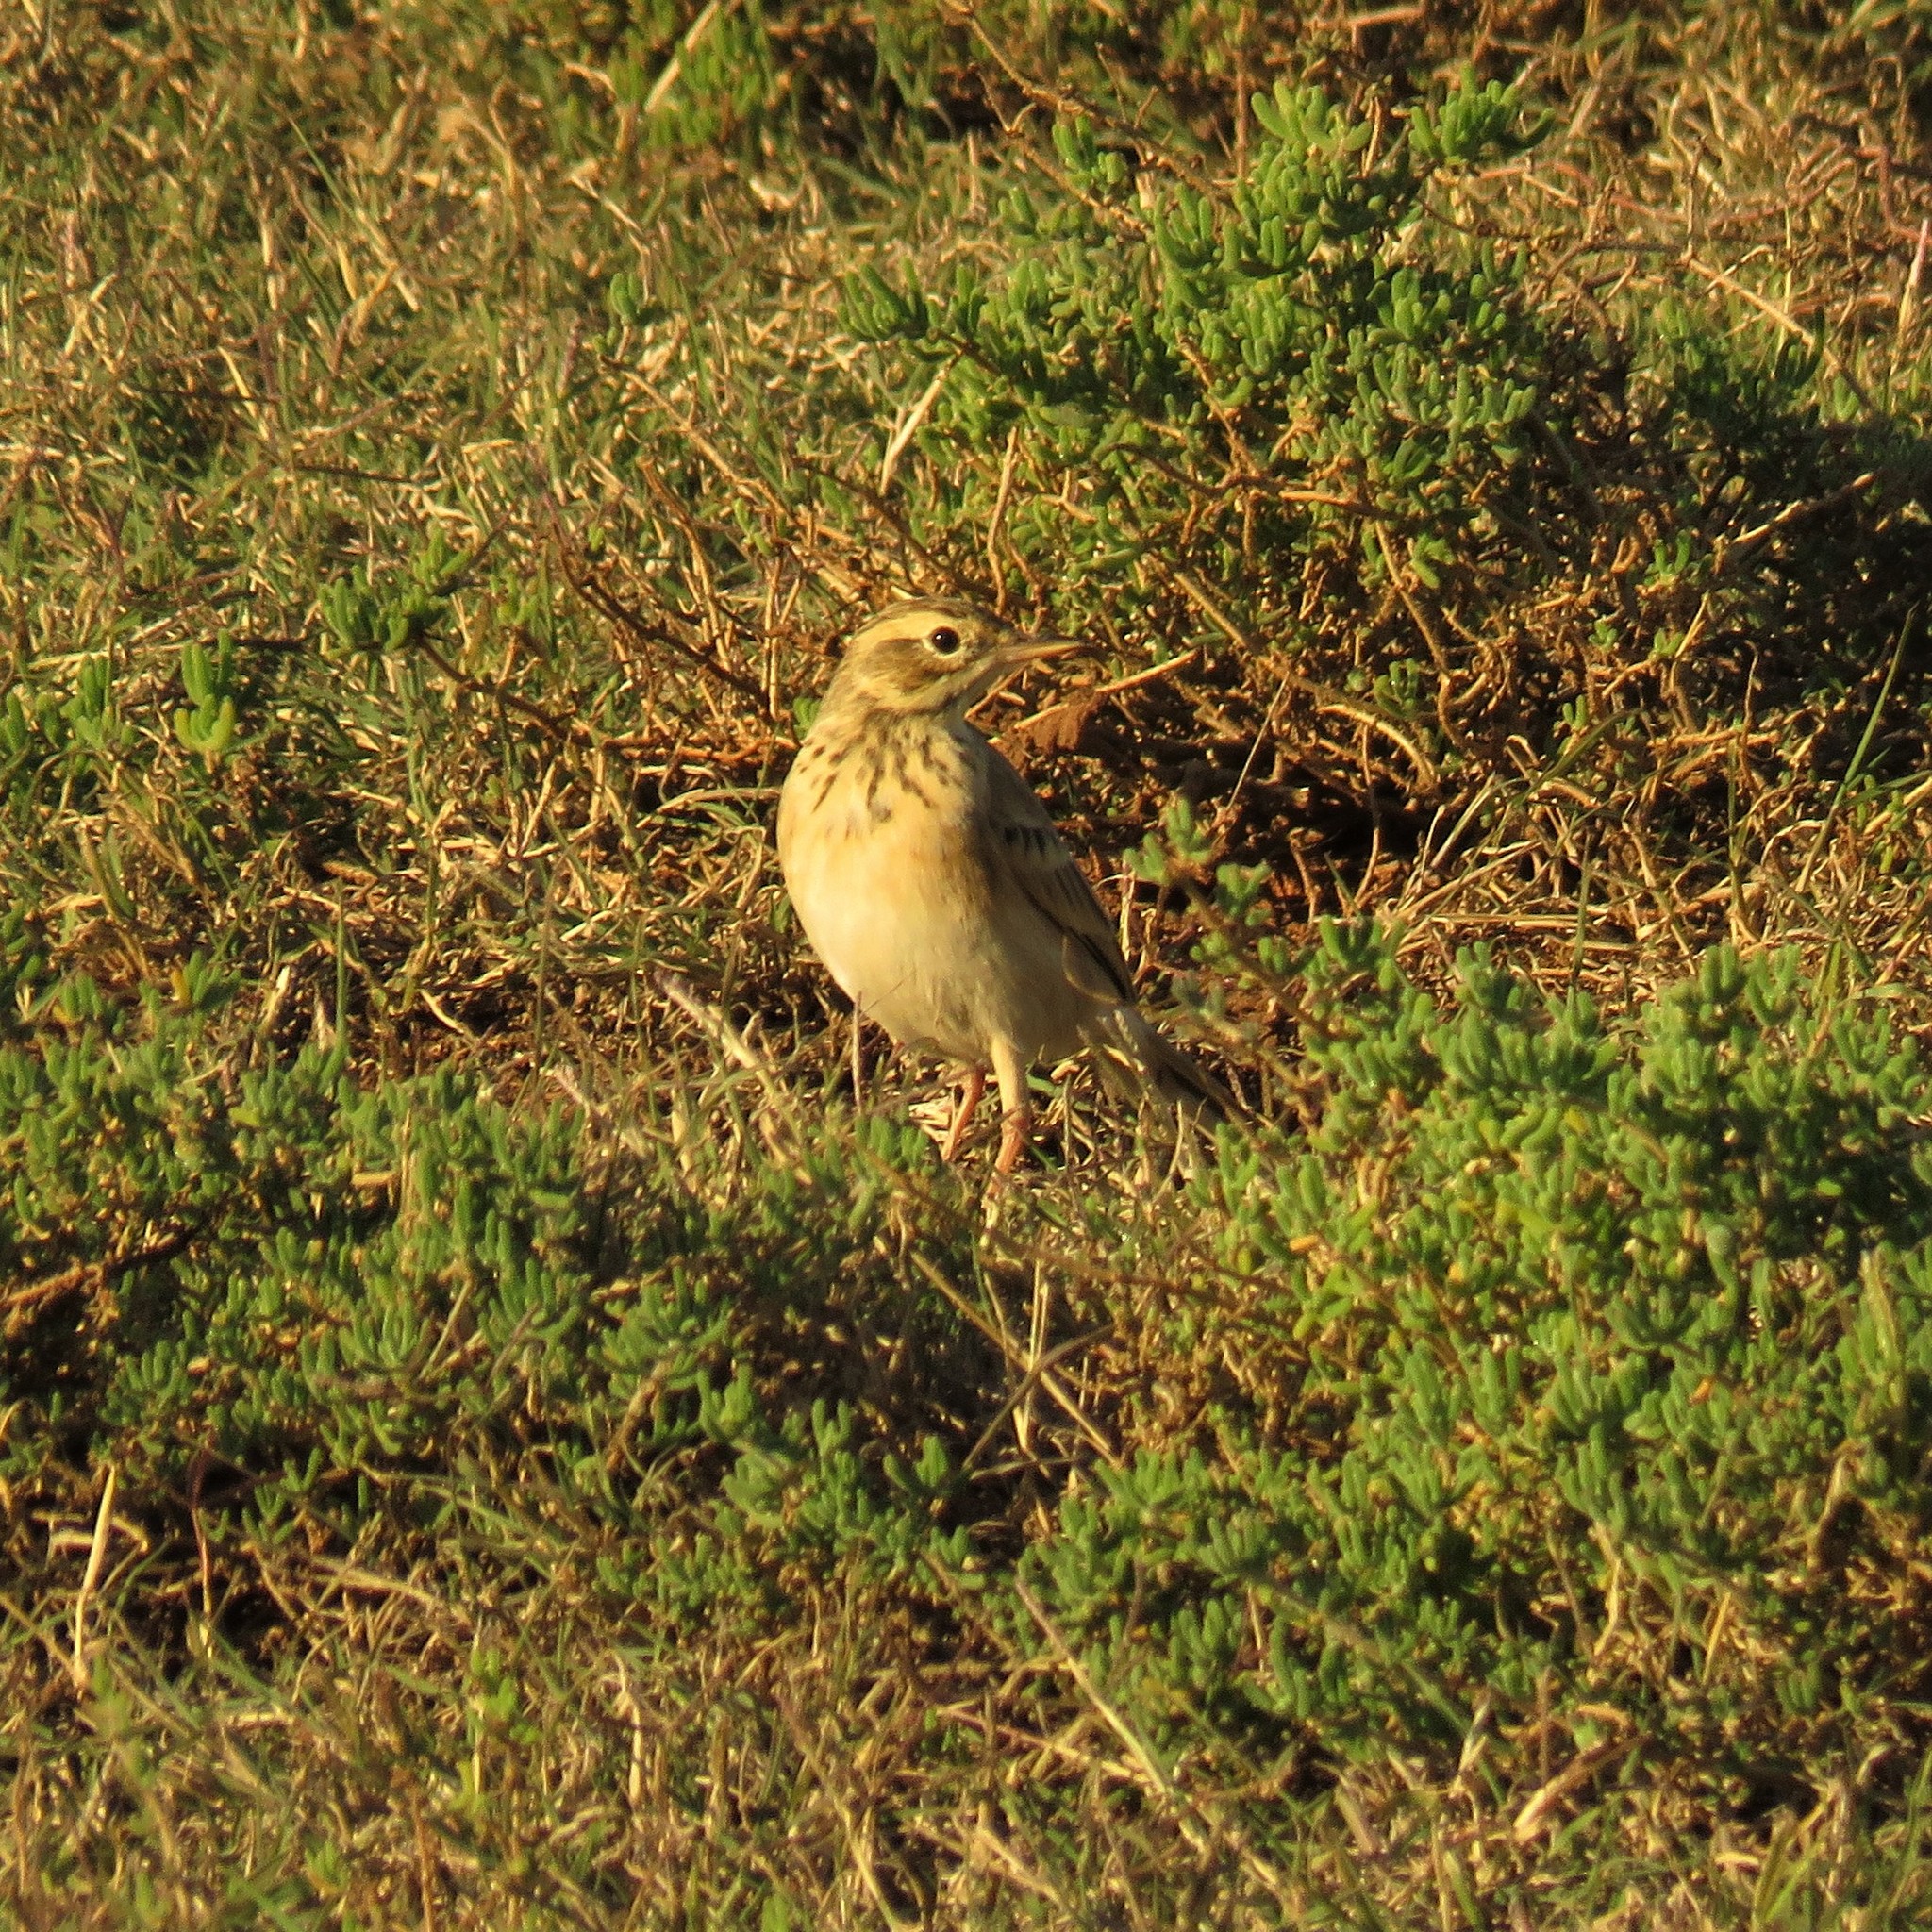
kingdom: Animalia
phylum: Chordata
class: Aves
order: Passeriformes
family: Motacillidae
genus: Anthus
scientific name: Anthus cinnamomeus
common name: African pipit
